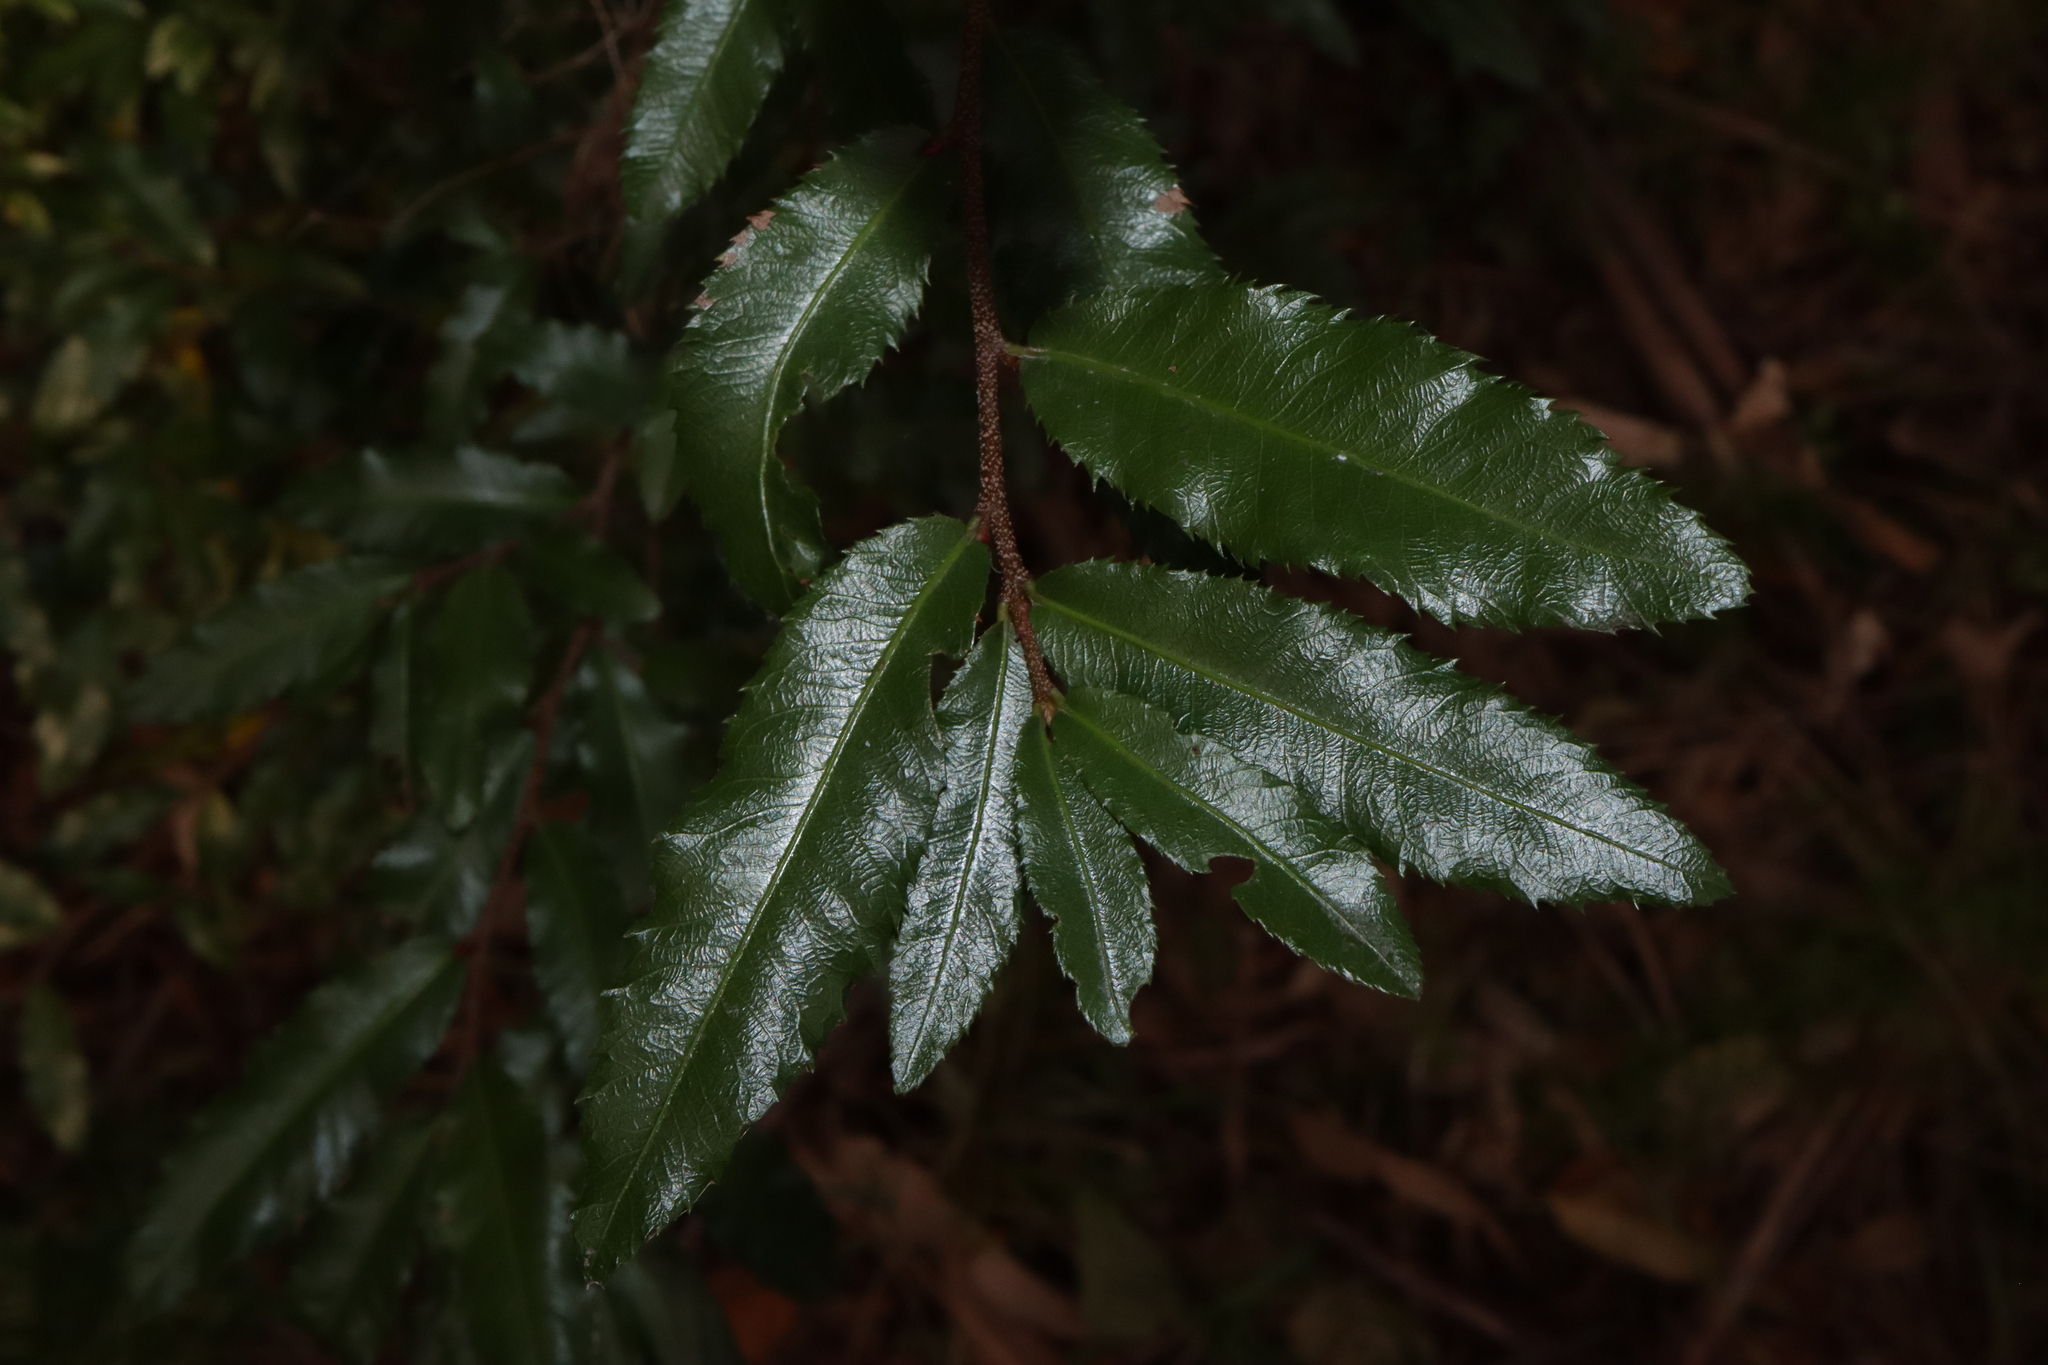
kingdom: Plantae
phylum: Tracheophyta
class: Magnoliopsida
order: Malpighiales
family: Ochnaceae
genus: Ochna
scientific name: Ochna serrulata
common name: Mickey mouse plant
